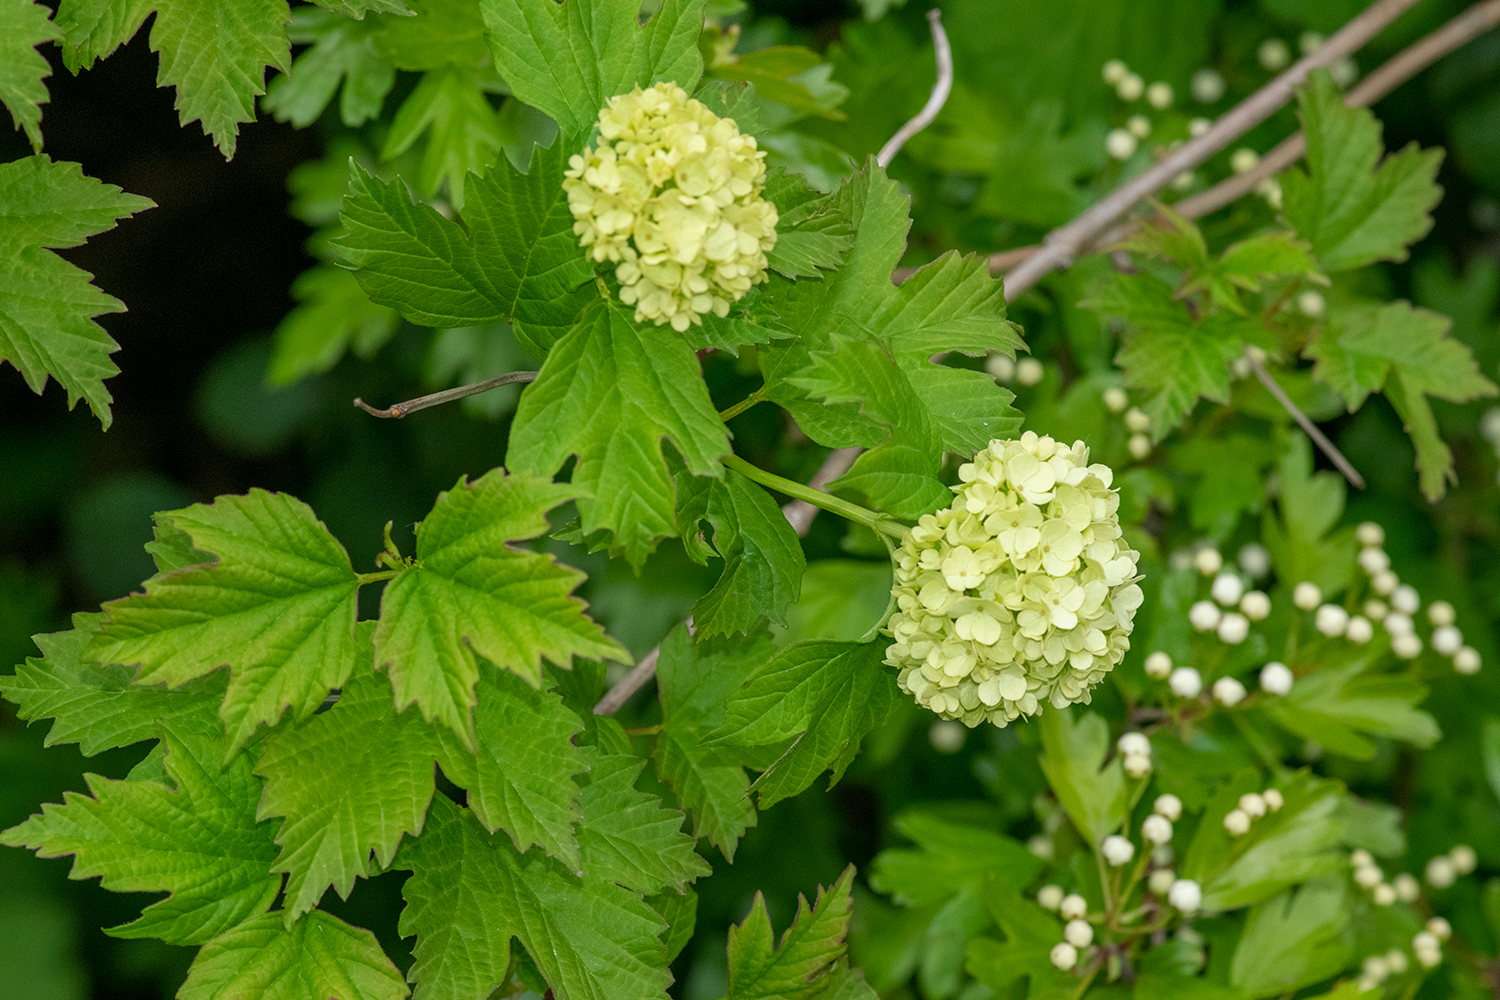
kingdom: Plantae
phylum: Tracheophyta
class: Magnoliopsida
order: Dipsacales
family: Viburnaceae
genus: Viburnum
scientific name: Viburnum opulus
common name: Guelder-rose
